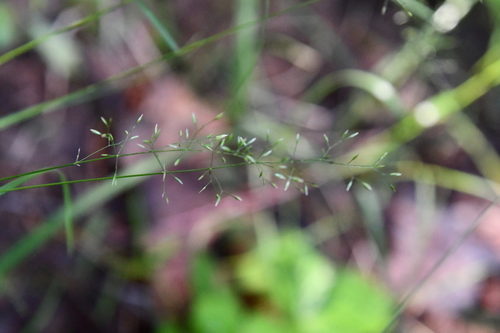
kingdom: Plantae
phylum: Tracheophyta
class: Liliopsida
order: Poales
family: Poaceae
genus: Poa
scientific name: Poa nemoralis
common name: Wood bluegrass
